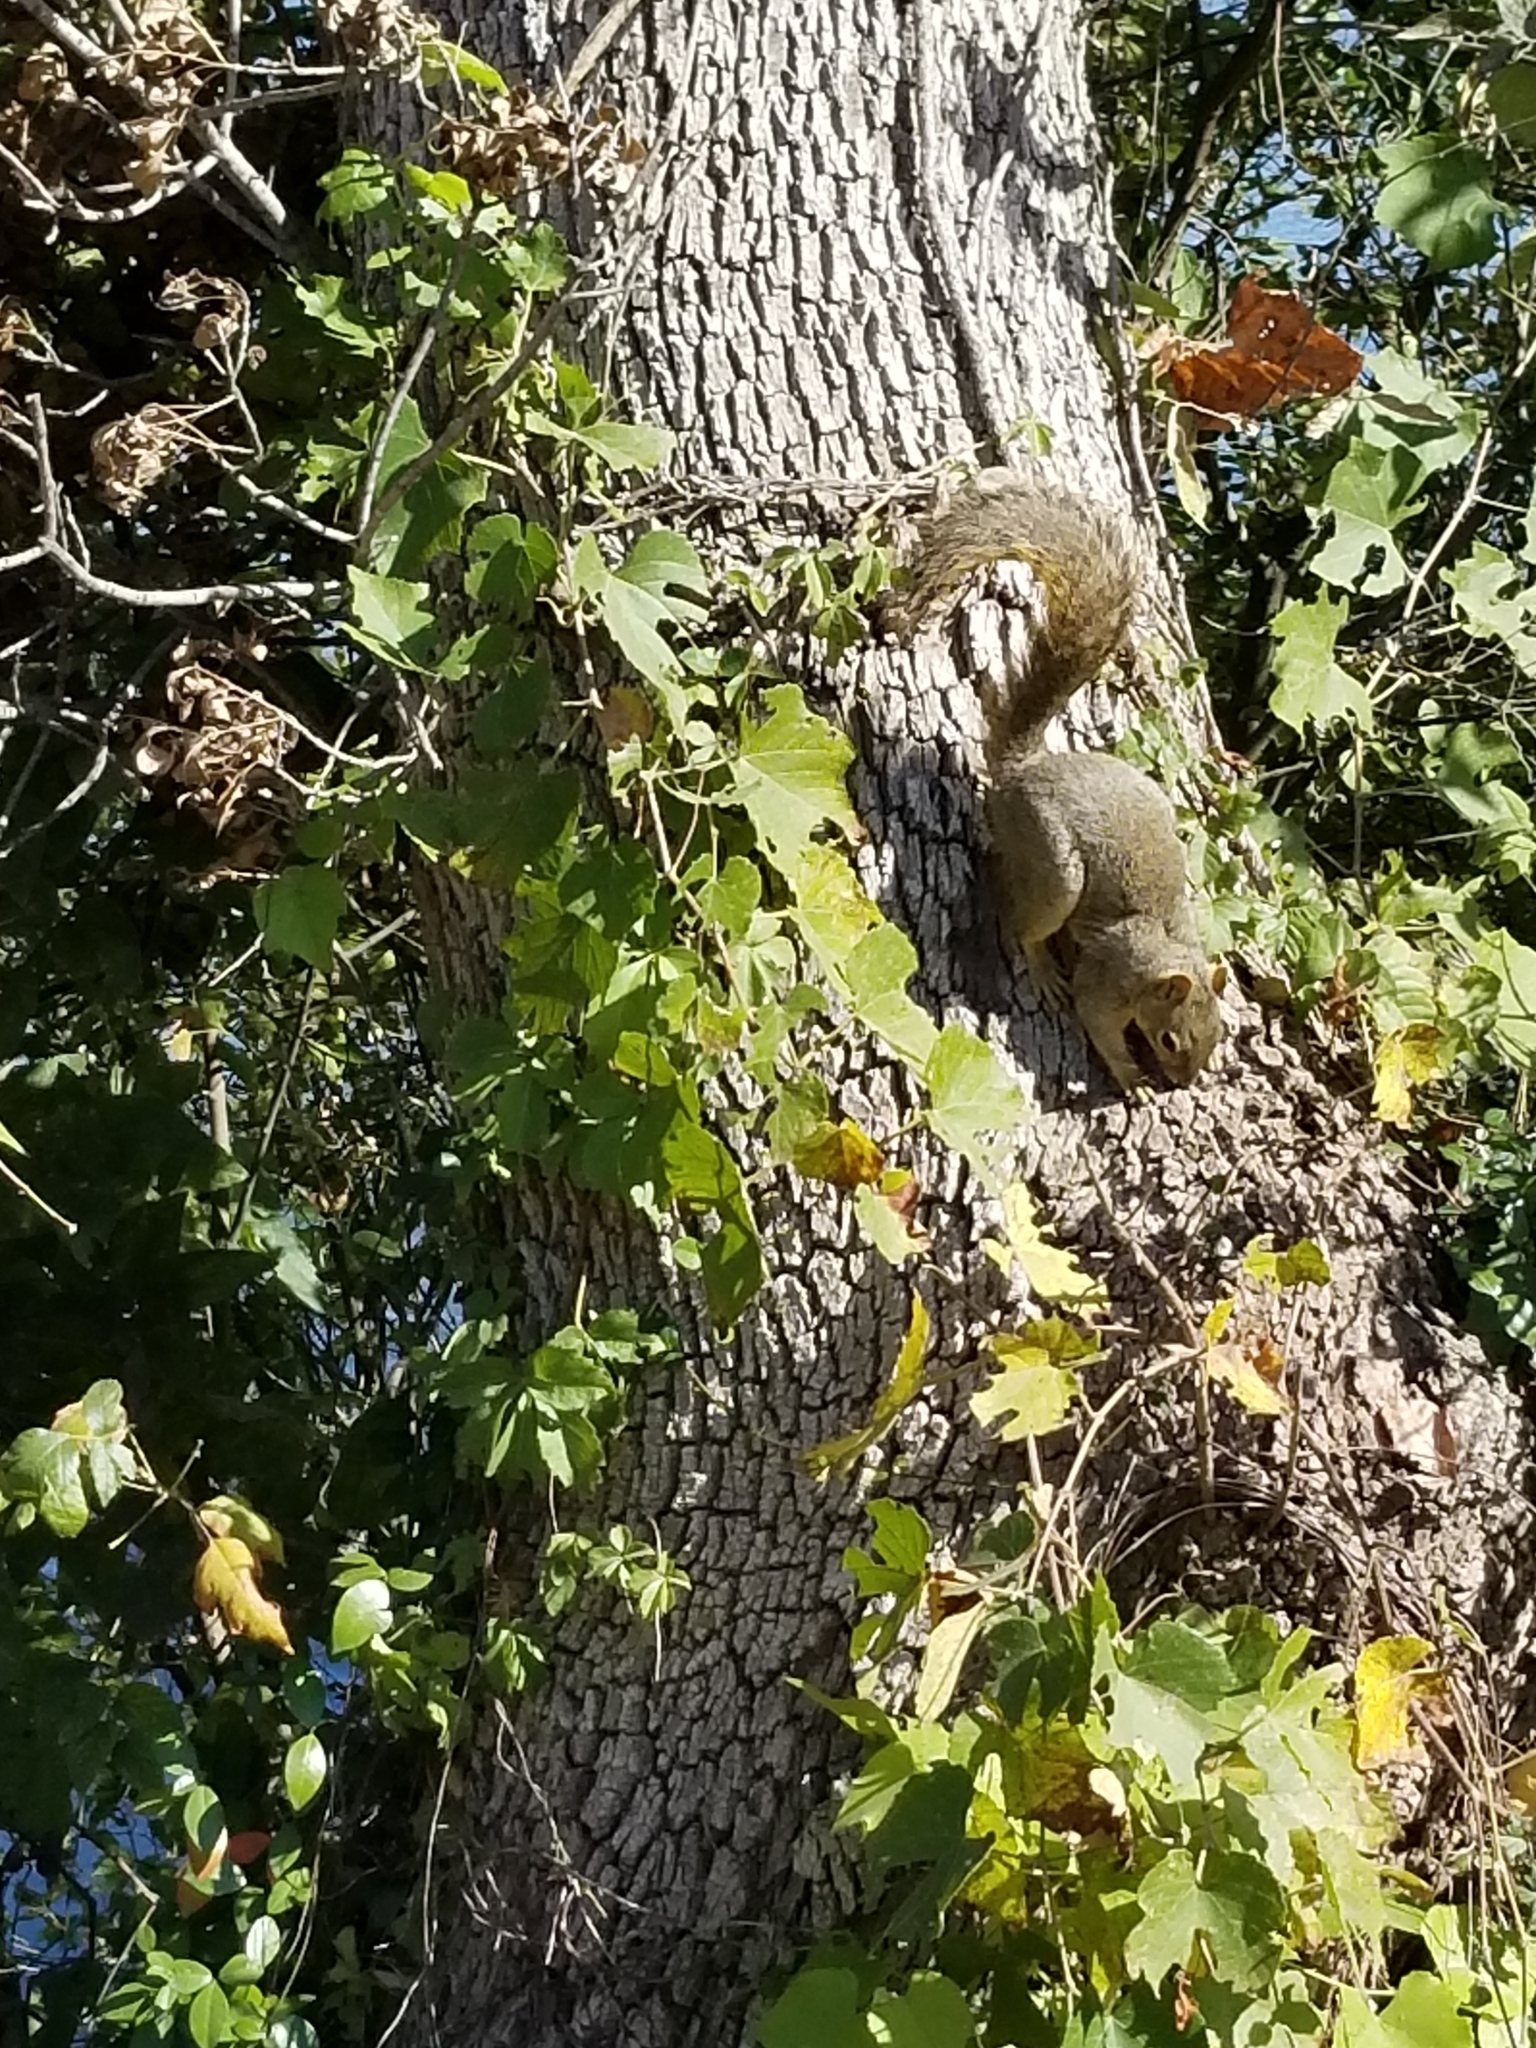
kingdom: Animalia
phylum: Chordata
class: Mammalia
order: Rodentia
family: Sciuridae
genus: Sciurus
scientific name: Sciurus niger
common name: Fox squirrel
